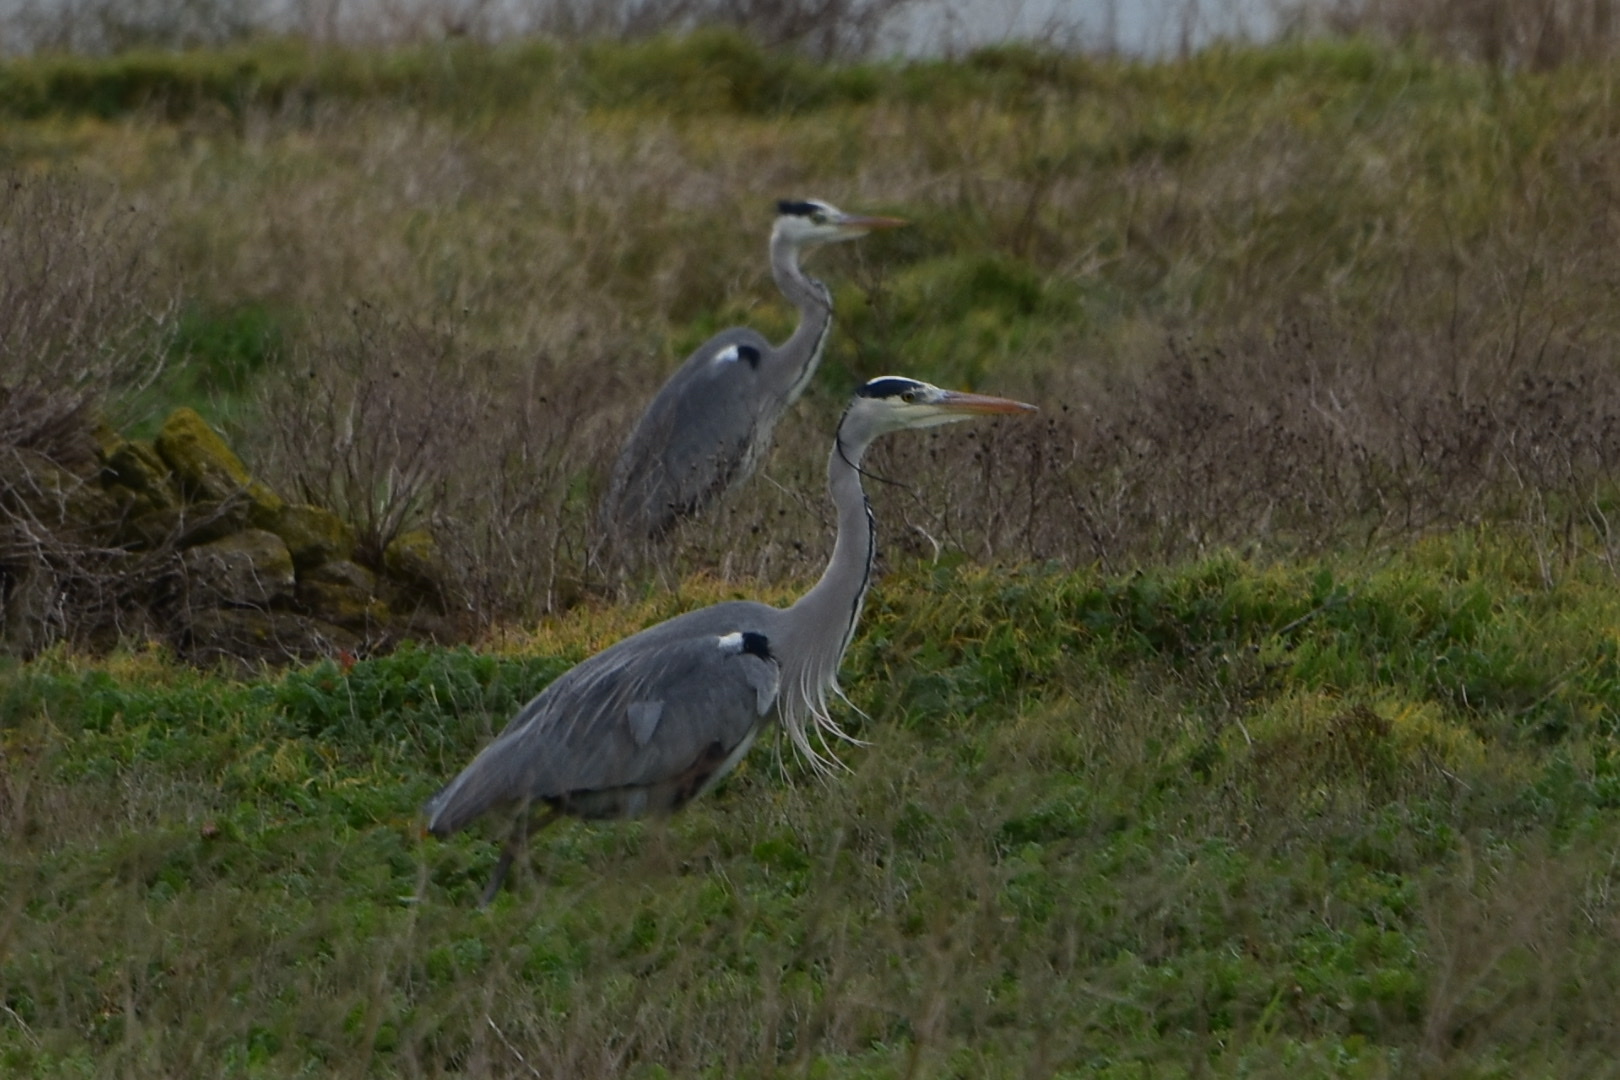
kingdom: Animalia
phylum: Chordata
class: Aves
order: Pelecaniformes
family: Ardeidae
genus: Ardea
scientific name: Ardea cinerea
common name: Grey heron
